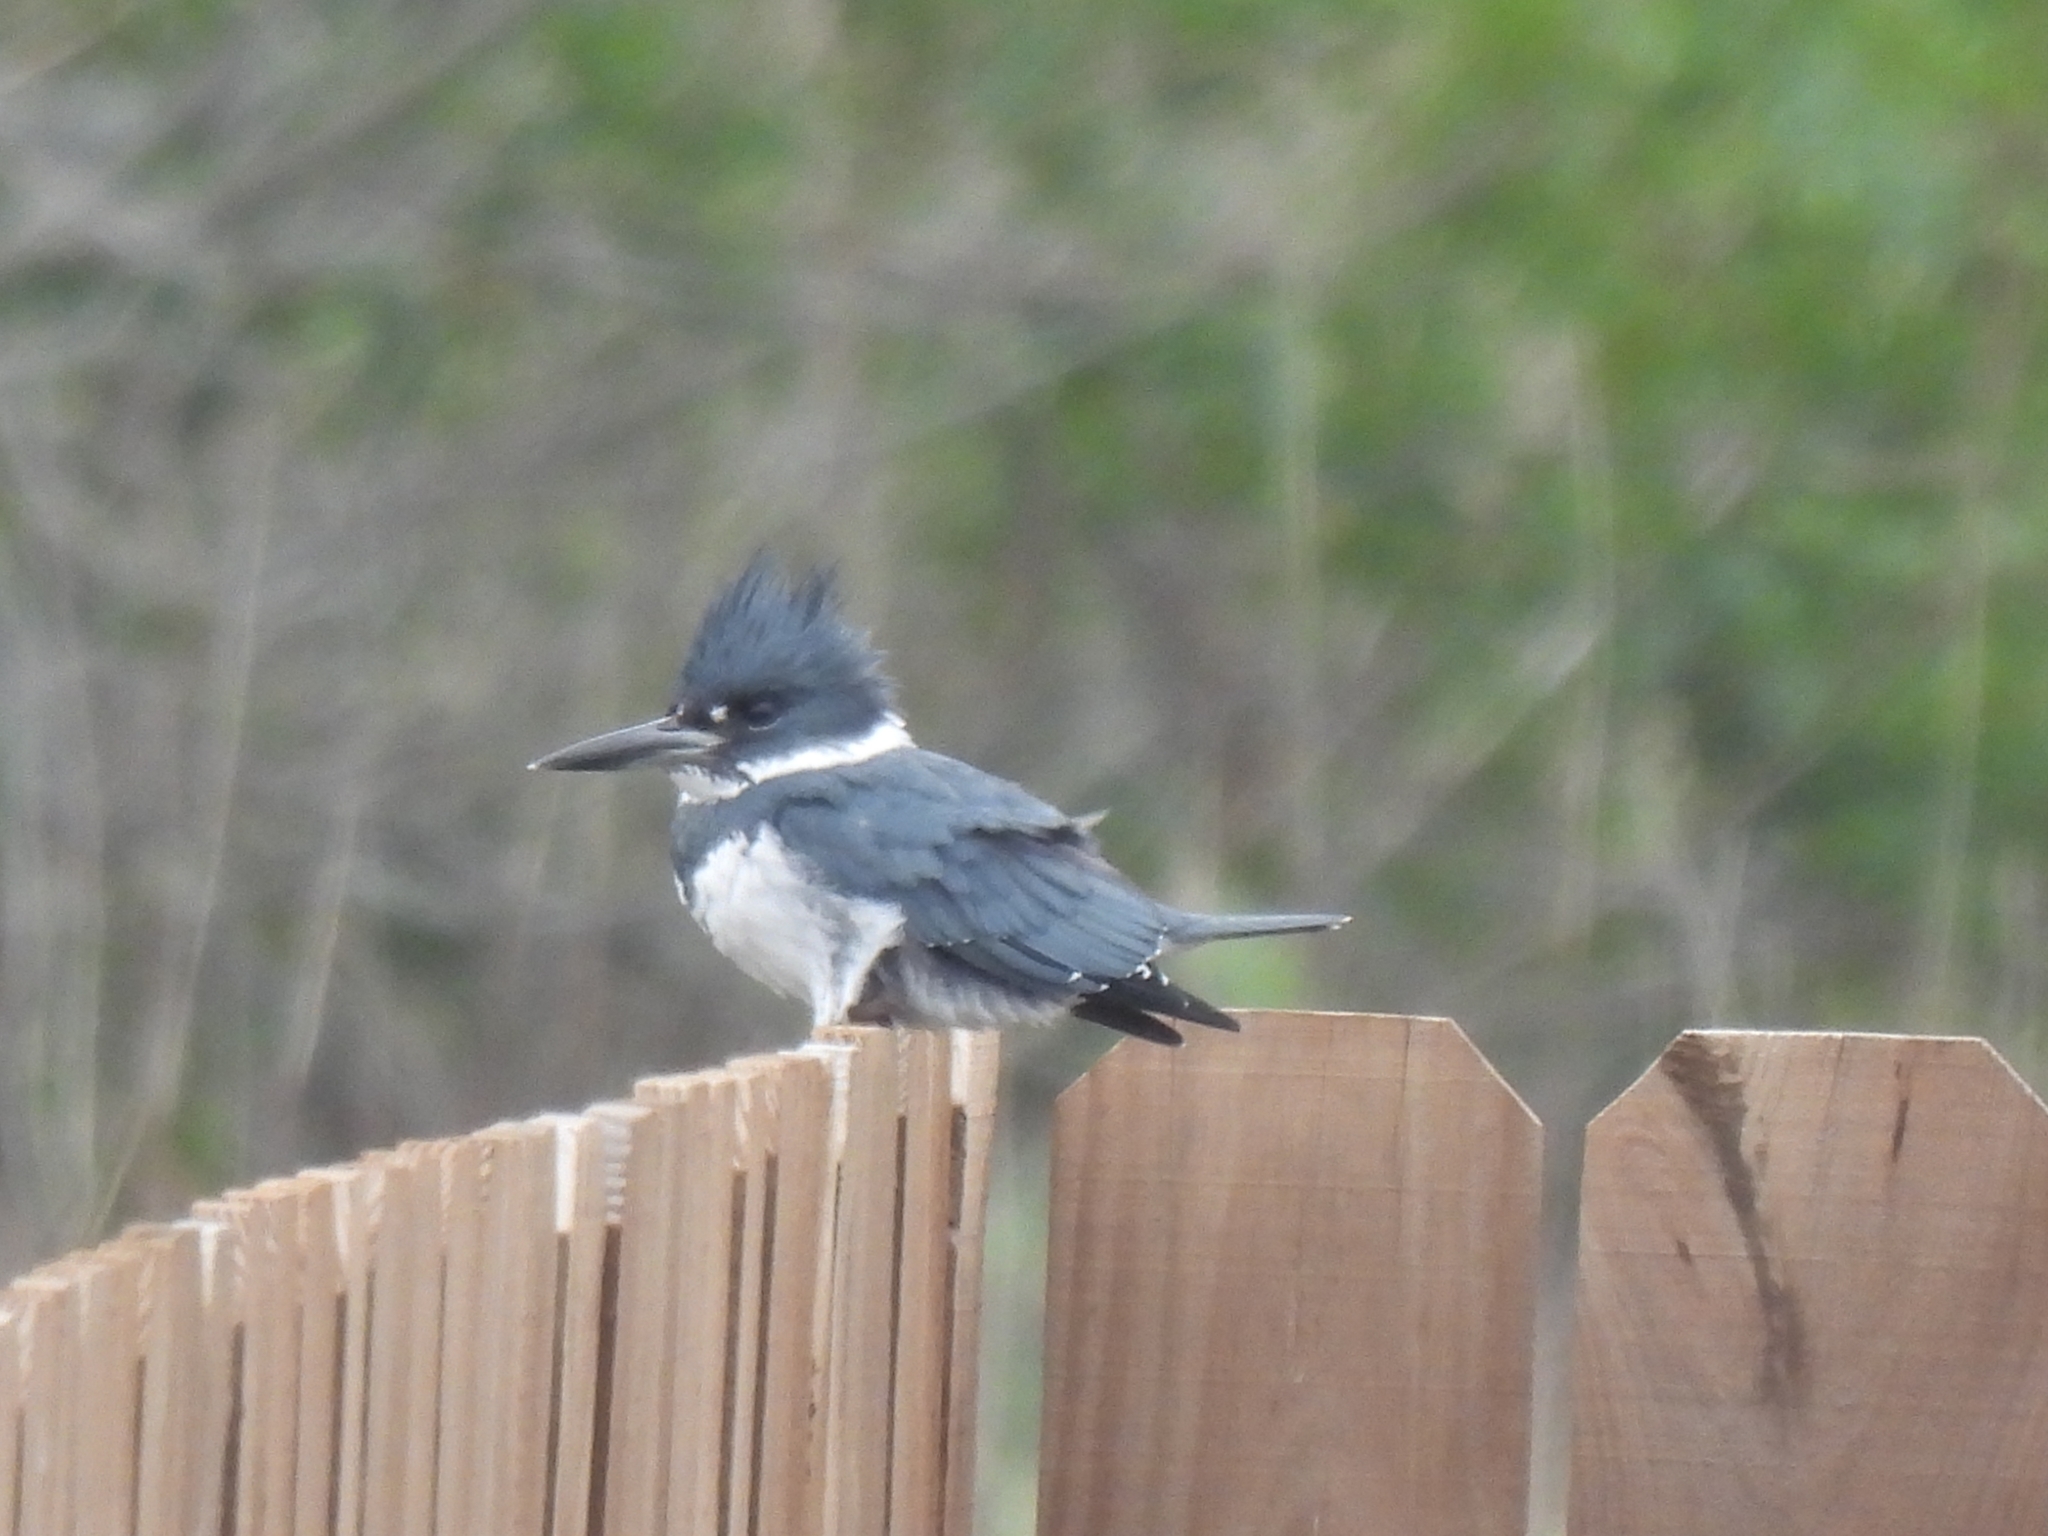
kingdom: Animalia
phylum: Chordata
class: Aves
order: Coraciiformes
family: Alcedinidae
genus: Megaceryle
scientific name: Megaceryle alcyon
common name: Belted kingfisher
